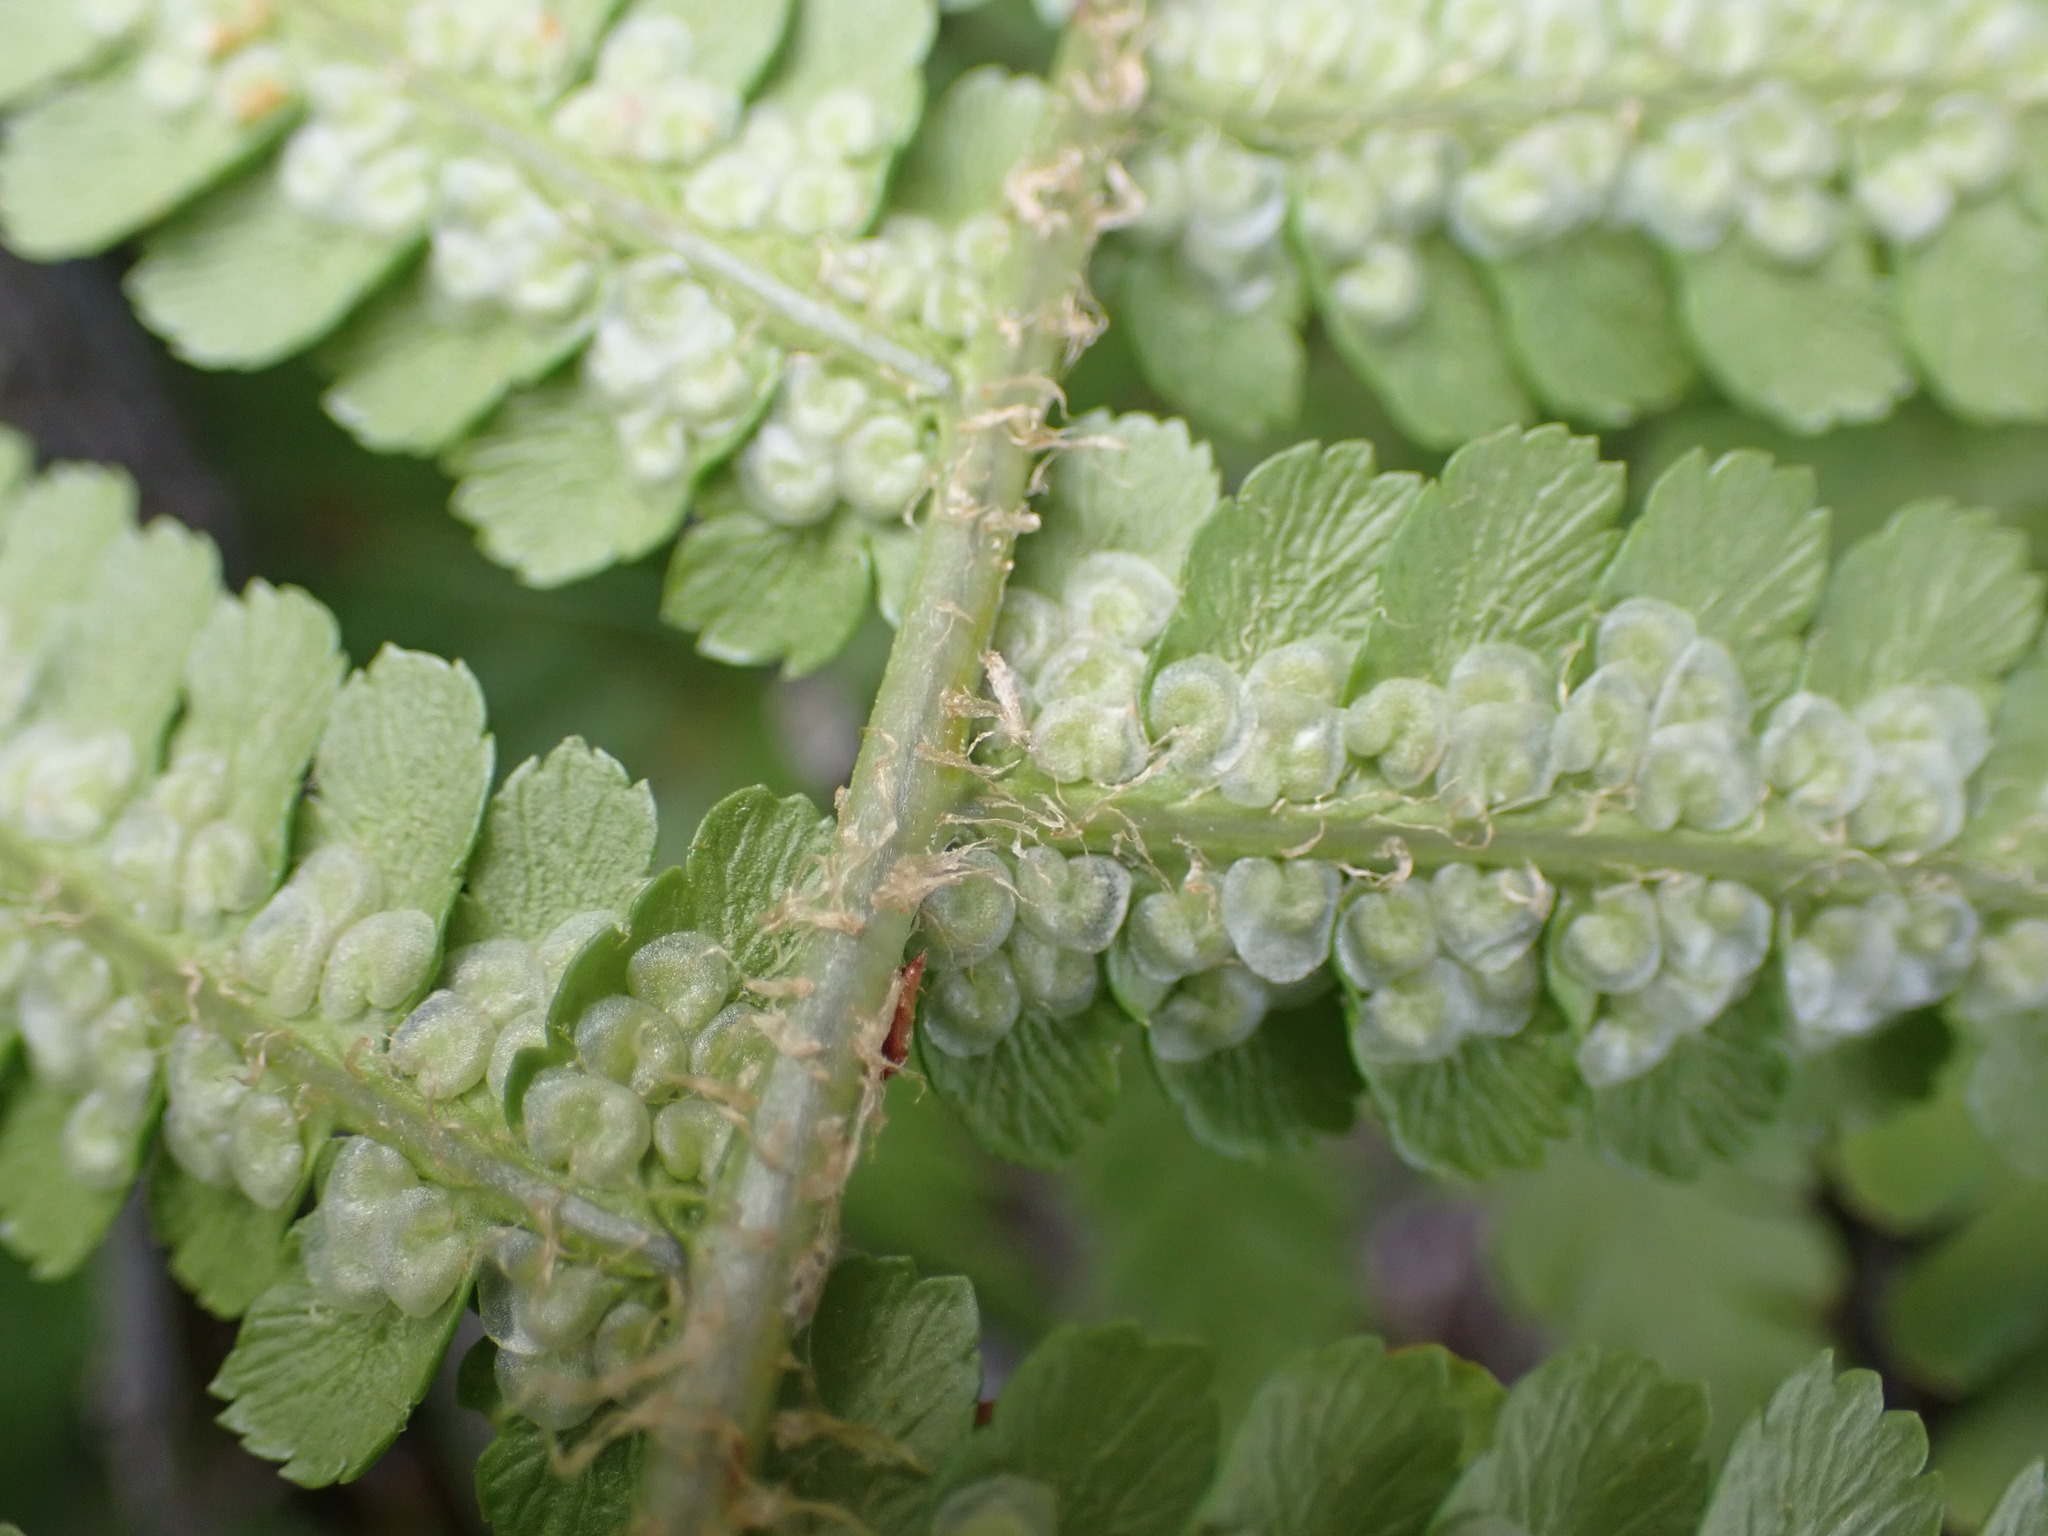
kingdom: Plantae
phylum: Tracheophyta
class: Polypodiopsida
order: Polypodiales
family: Dryopteridaceae
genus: Dryopteris
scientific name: Dryopteris filix-mas
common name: Male fern
